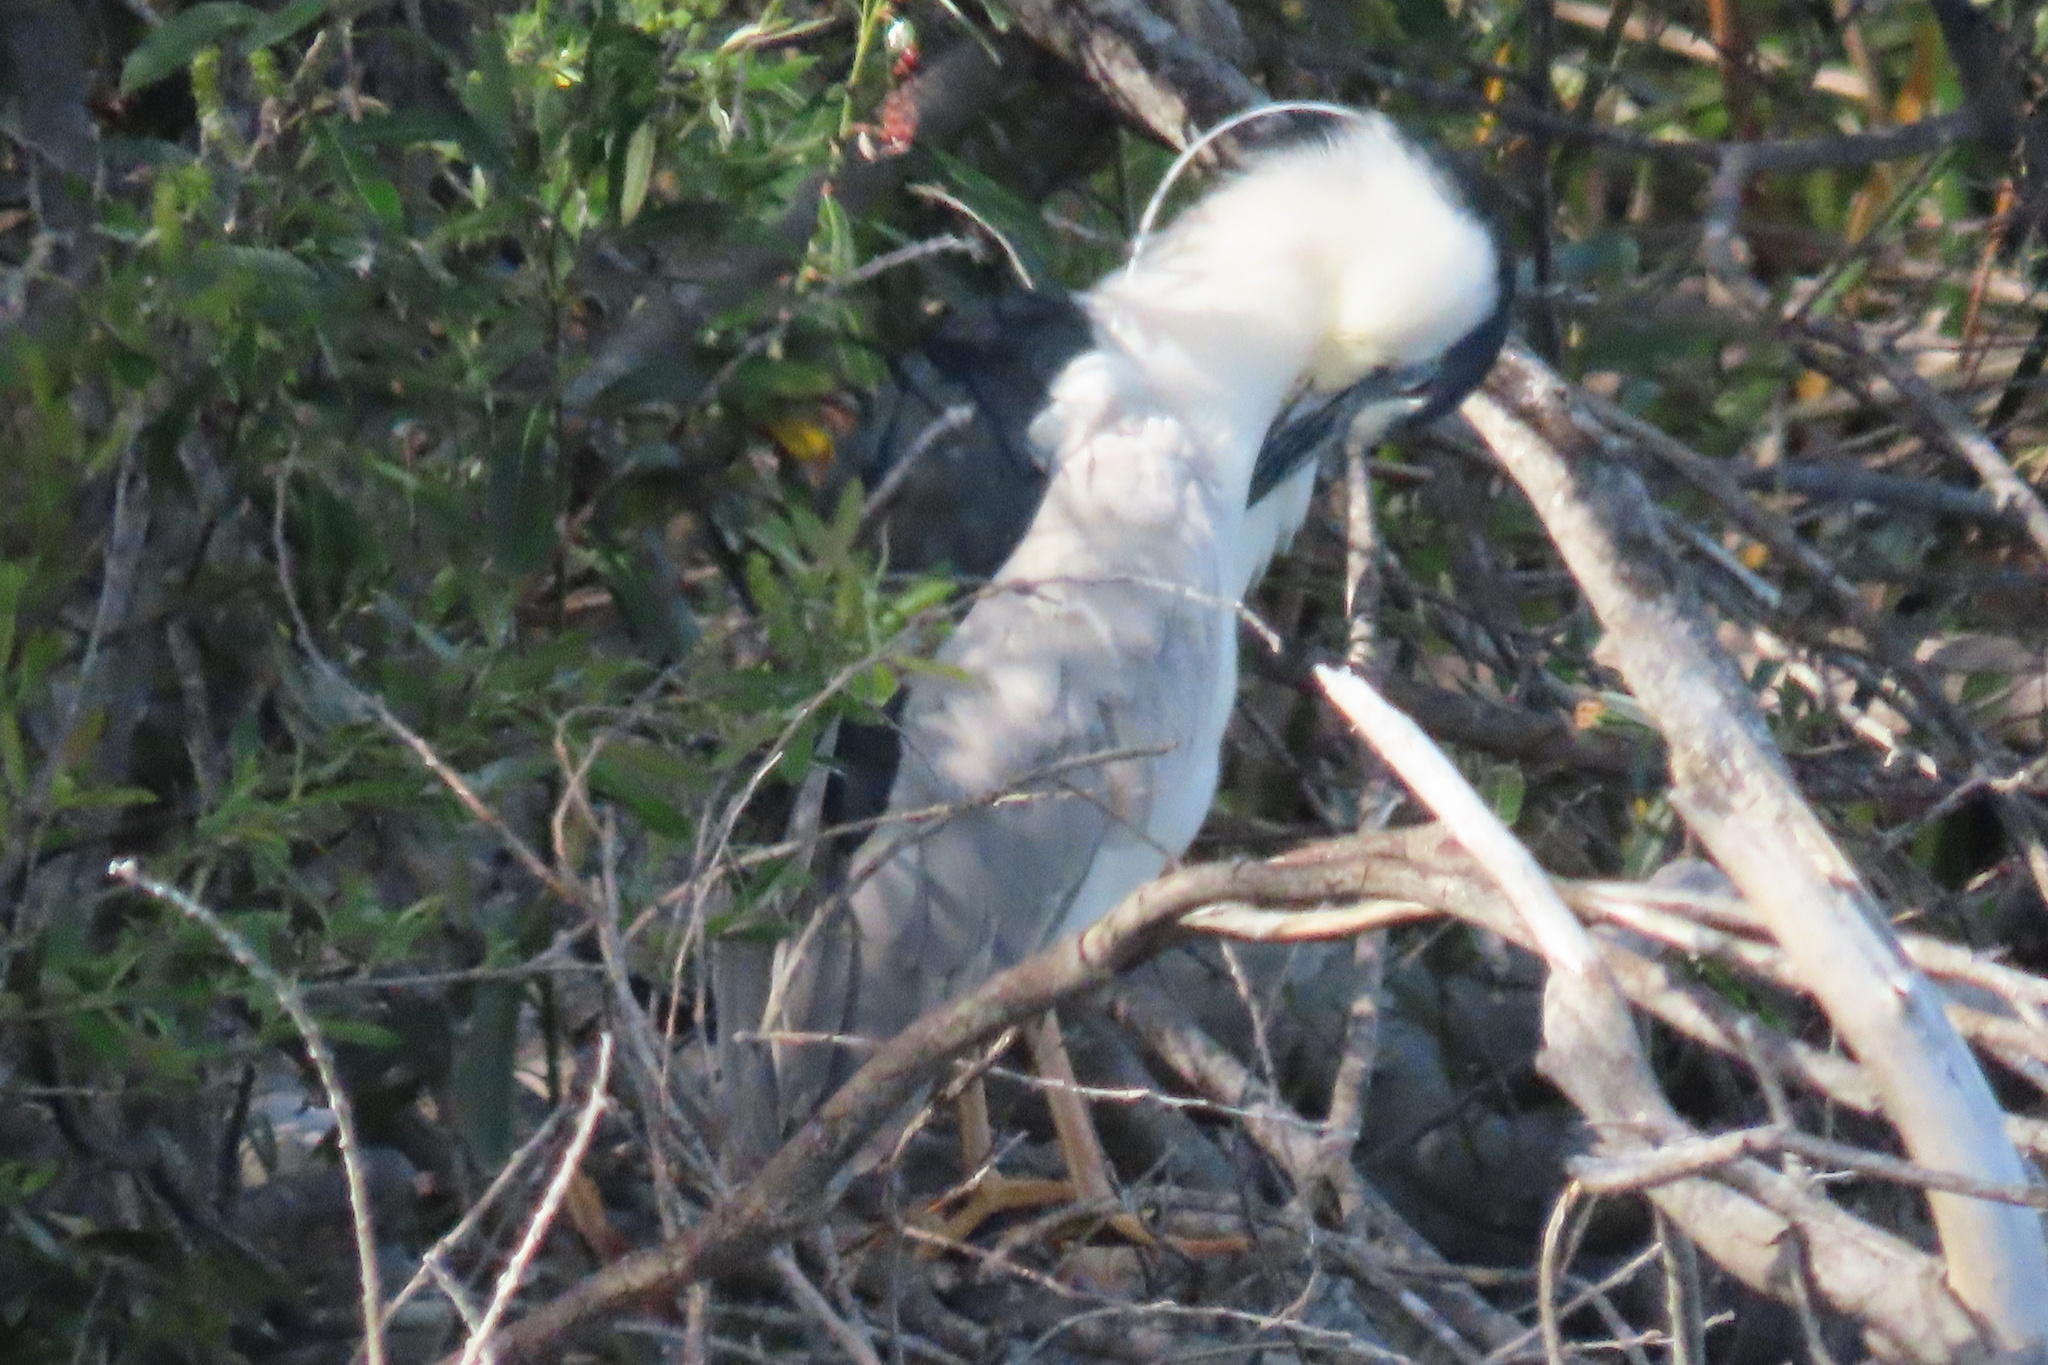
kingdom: Animalia
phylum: Chordata
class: Aves
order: Pelecaniformes
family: Ardeidae
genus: Nycticorax
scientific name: Nycticorax nycticorax
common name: Black-crowned night heron
